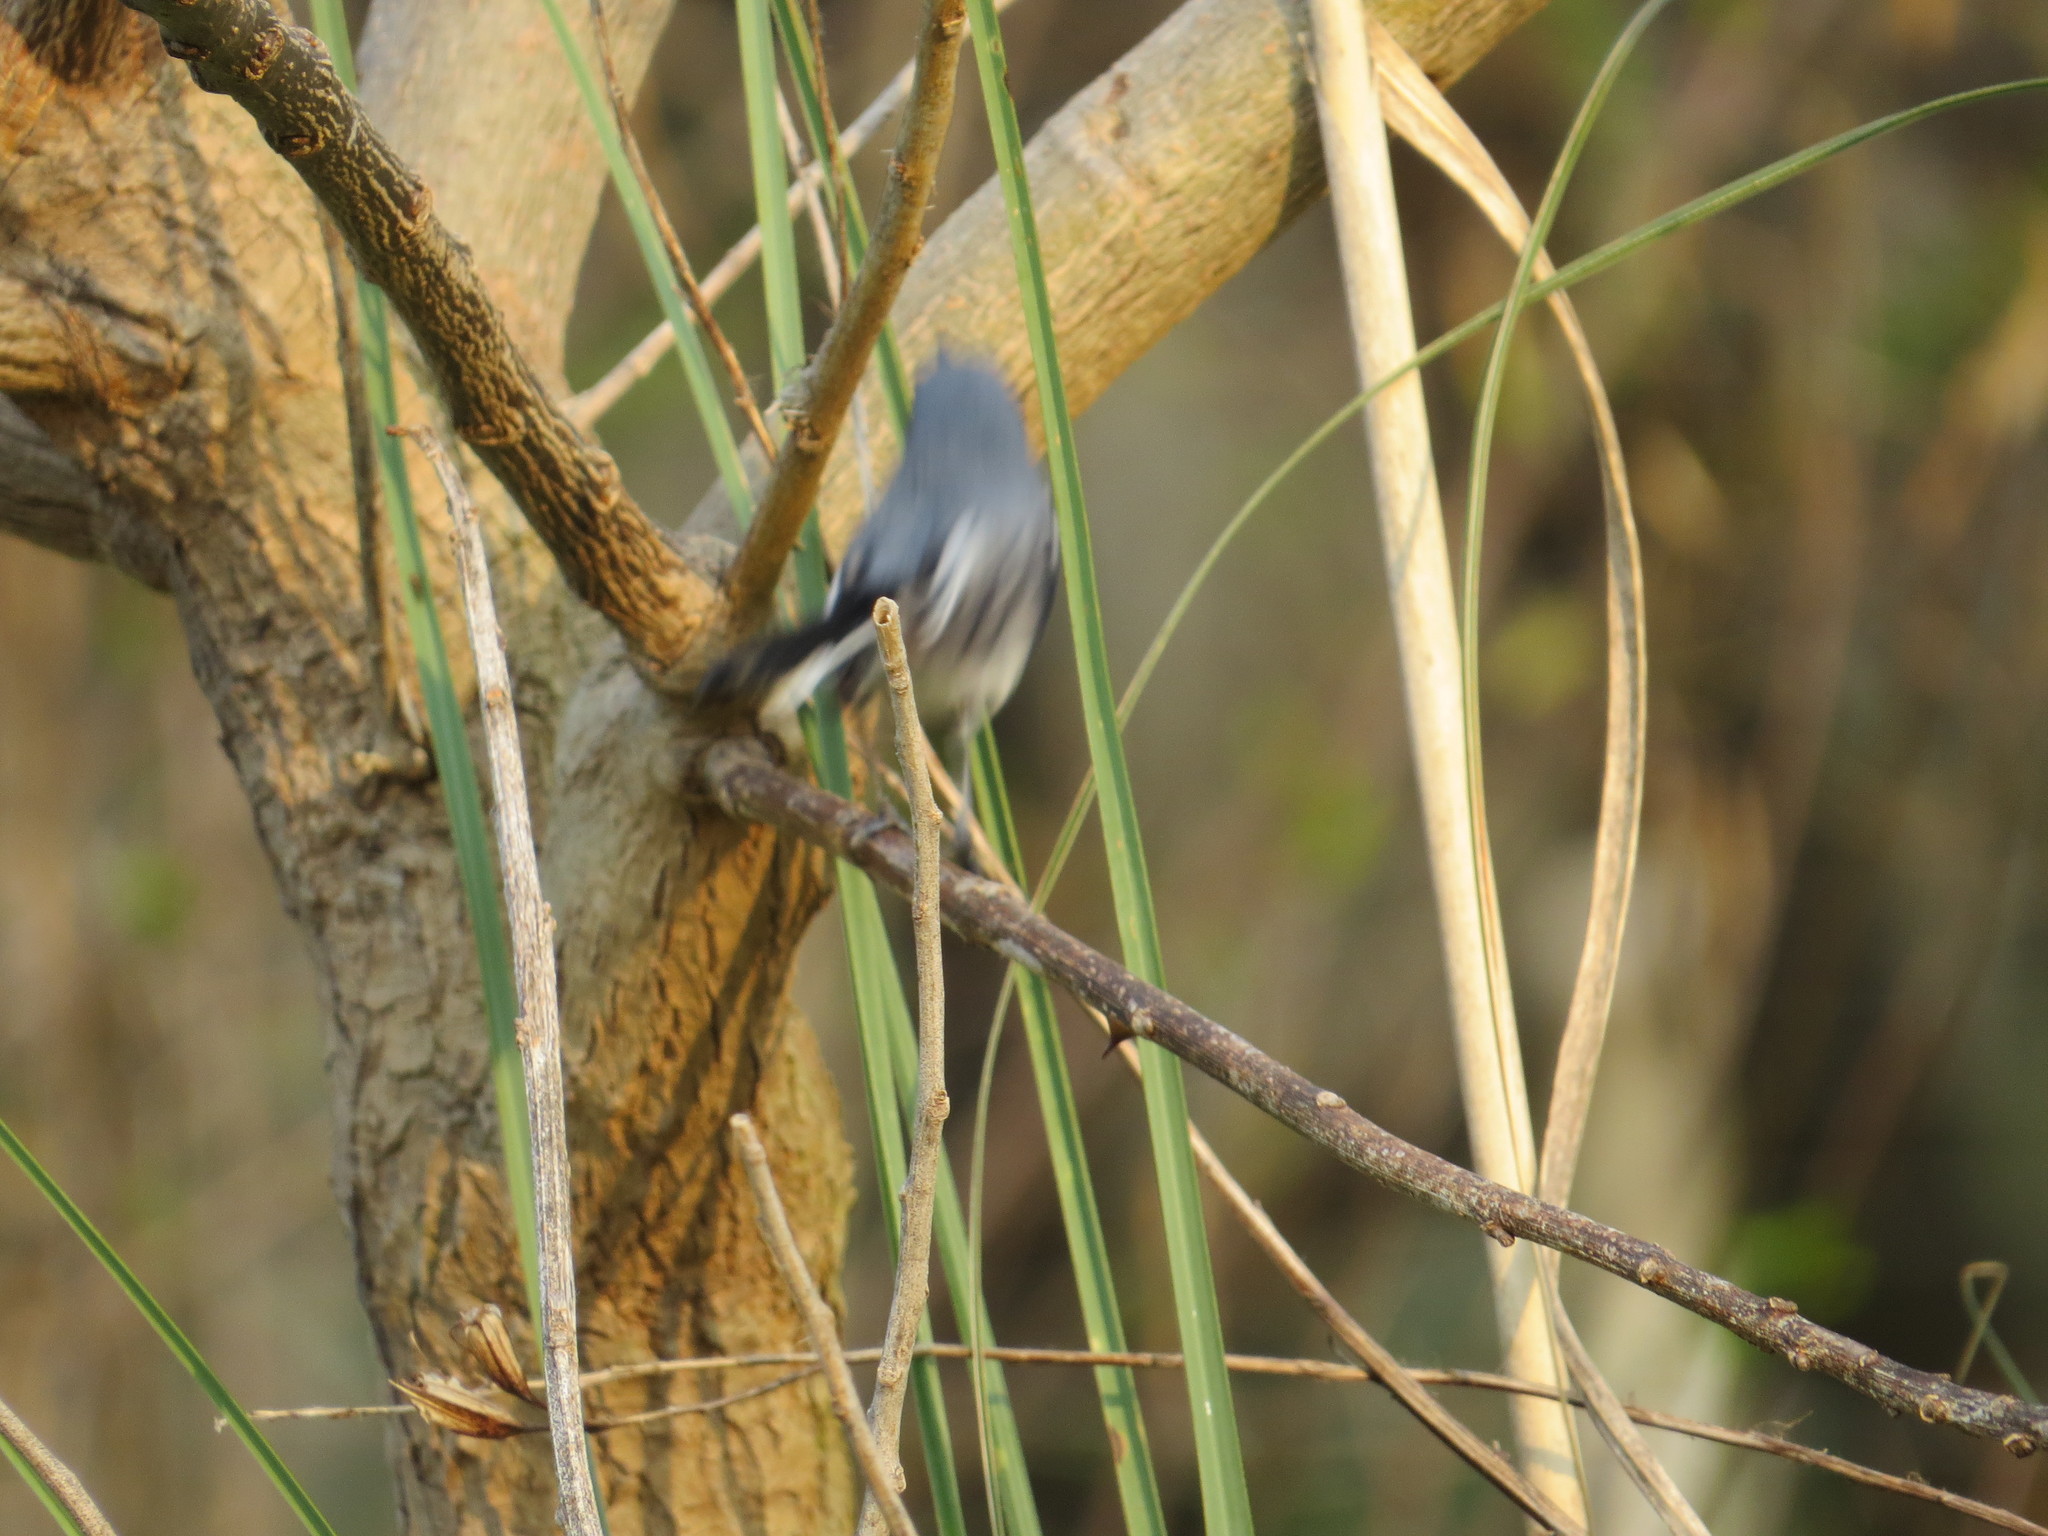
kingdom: Animalia
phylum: Chordata
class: Aves
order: Passeriformes
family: Polioptilidae
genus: Polioptila
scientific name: Polioptila dumicola
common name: Masked gnatcatcher
